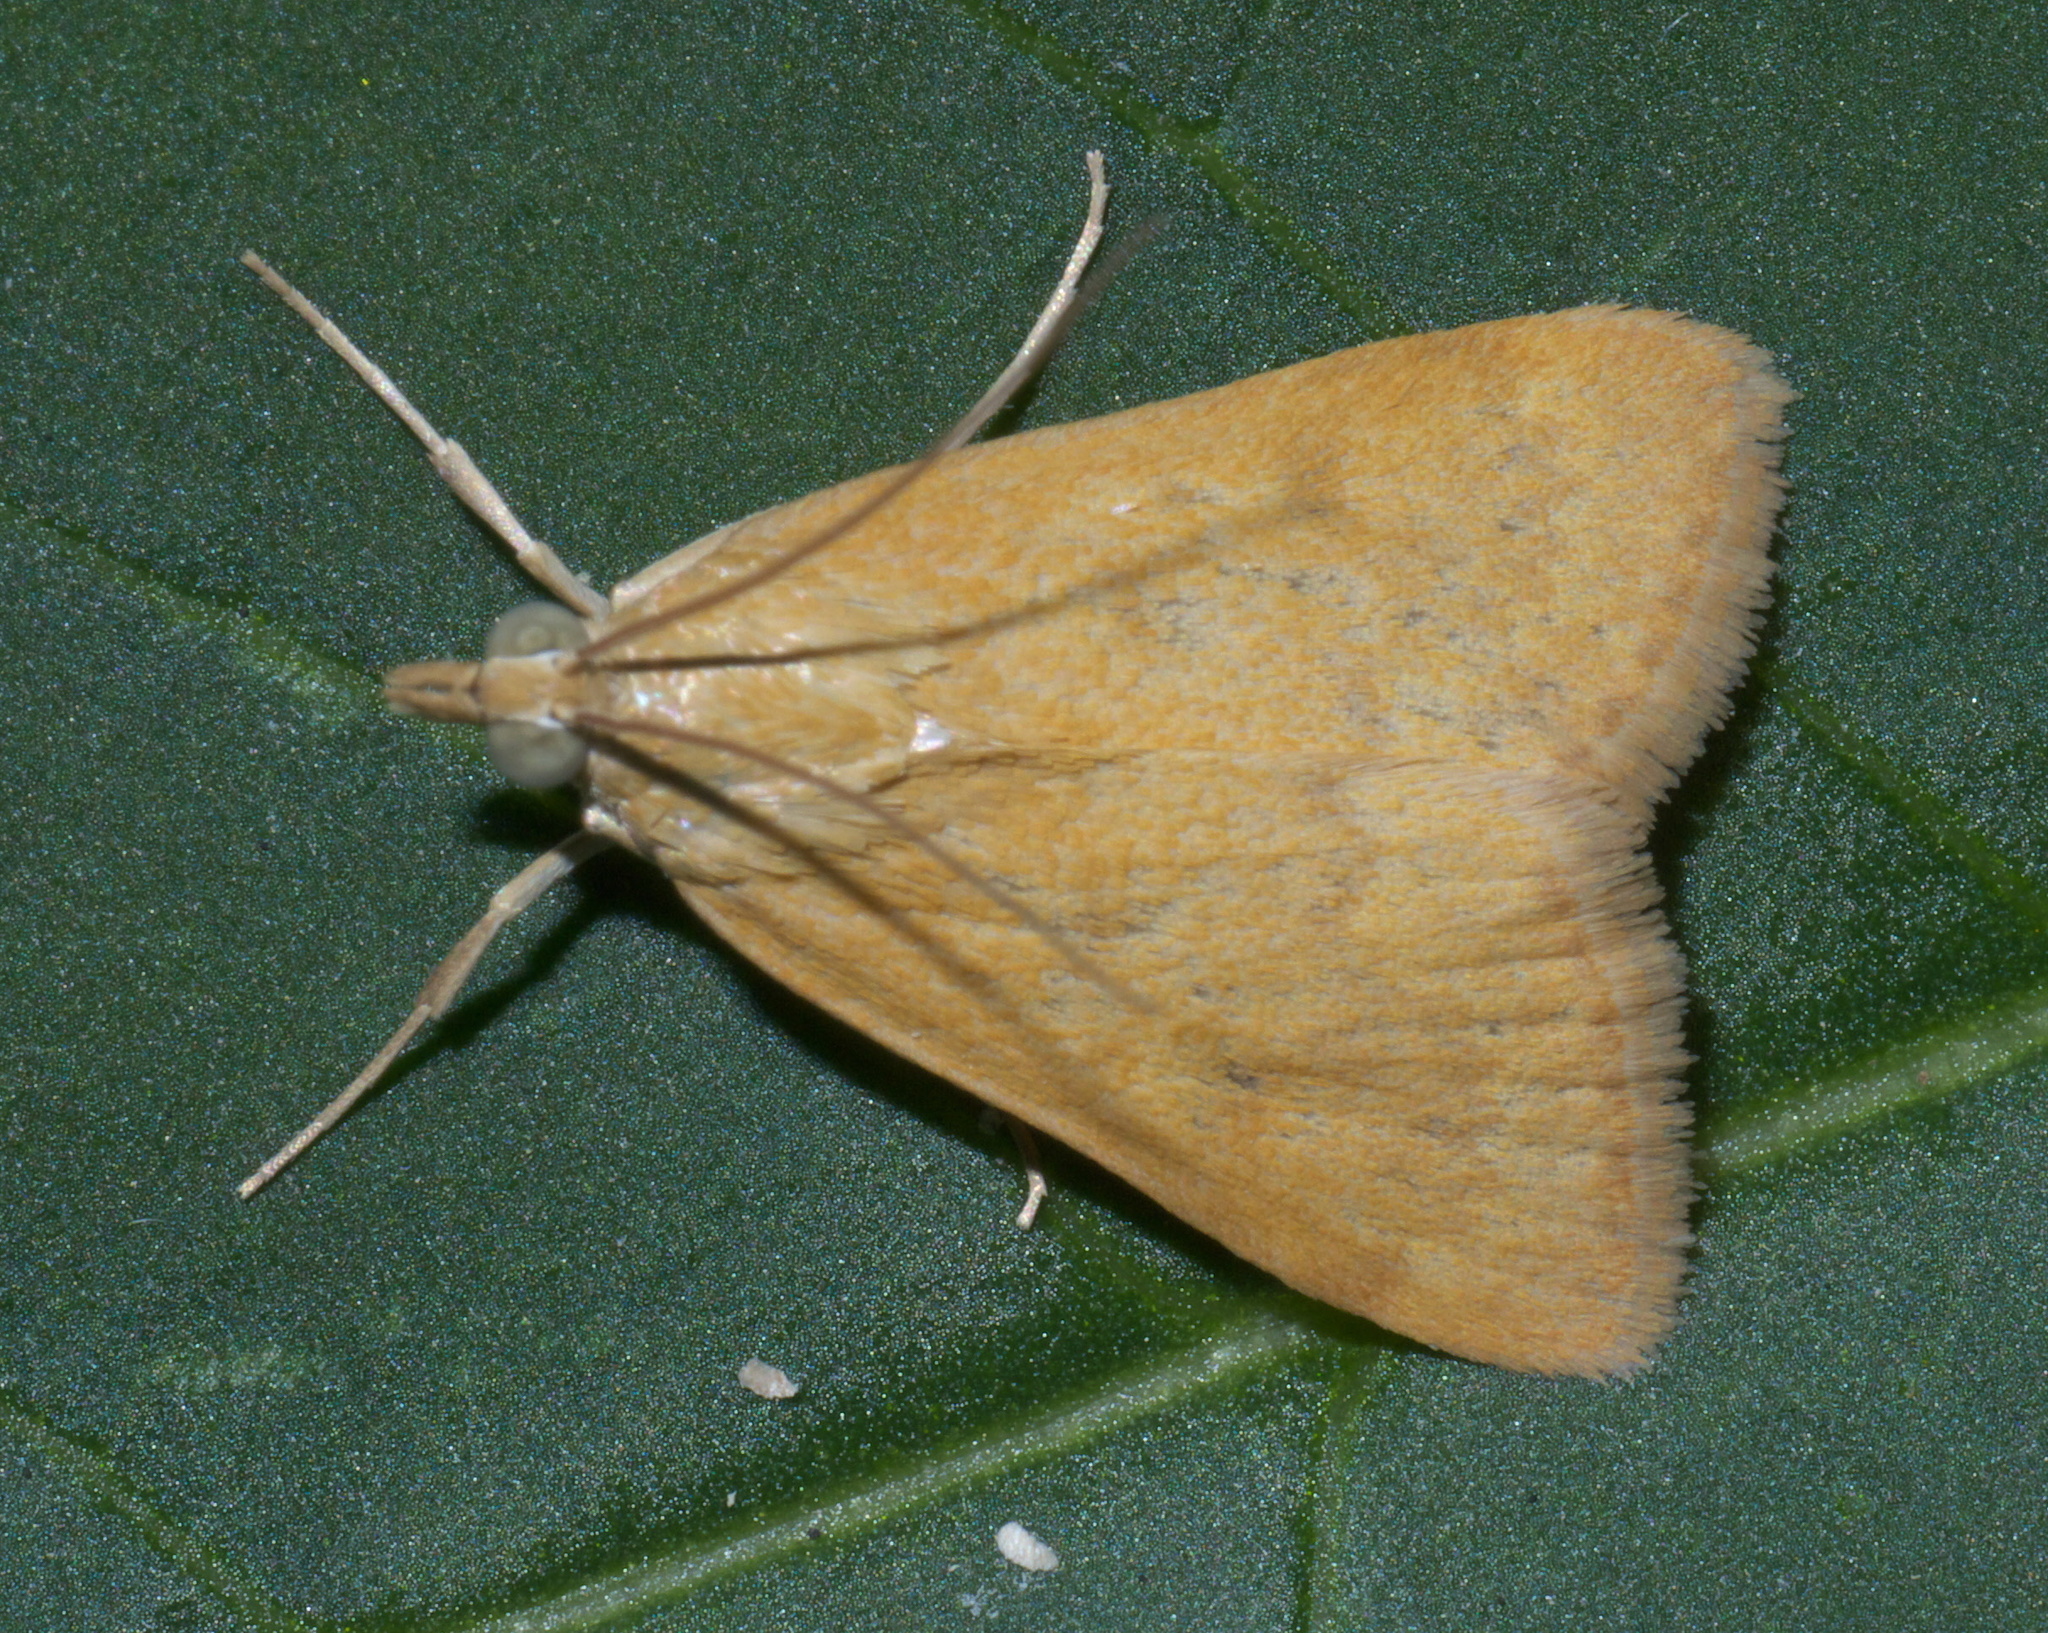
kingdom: Animalia
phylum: Arthropoda
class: Insecta
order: Lepidoptera
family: Crambidae
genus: Achyra
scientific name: Achyra rantalis
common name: Garden webworm
